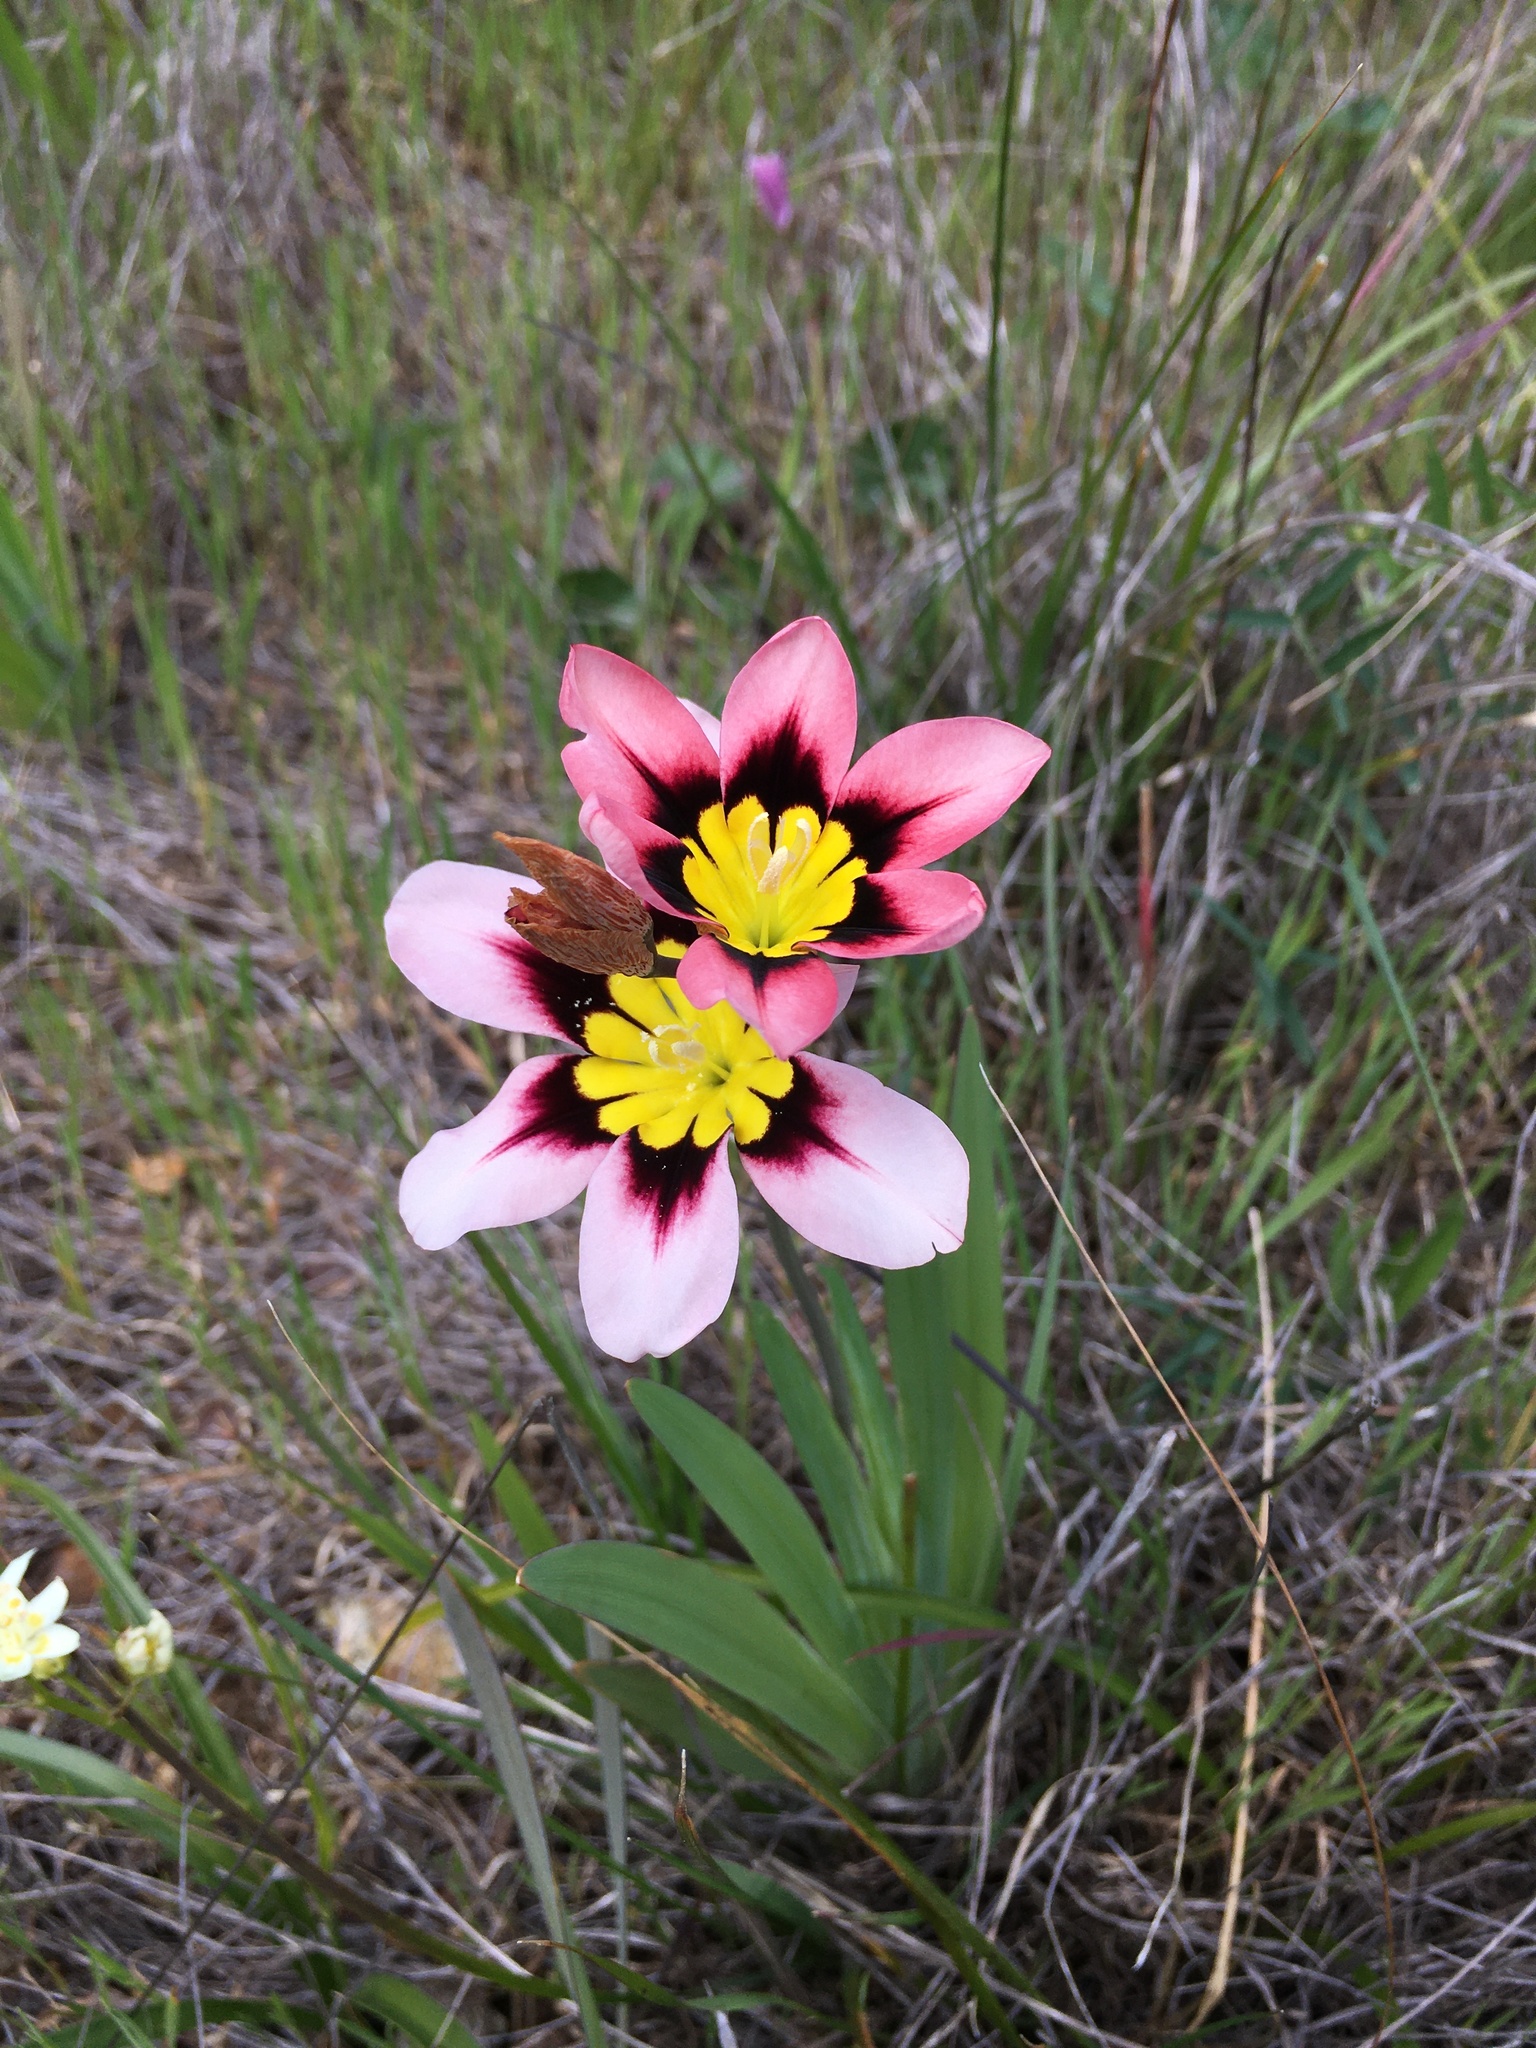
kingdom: Plantae
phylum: Tracheophyta
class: Liliopsida
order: Asparagales
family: Iridaceae
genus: Sparaxis
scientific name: Sparaxis tricolor
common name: Wandflower
